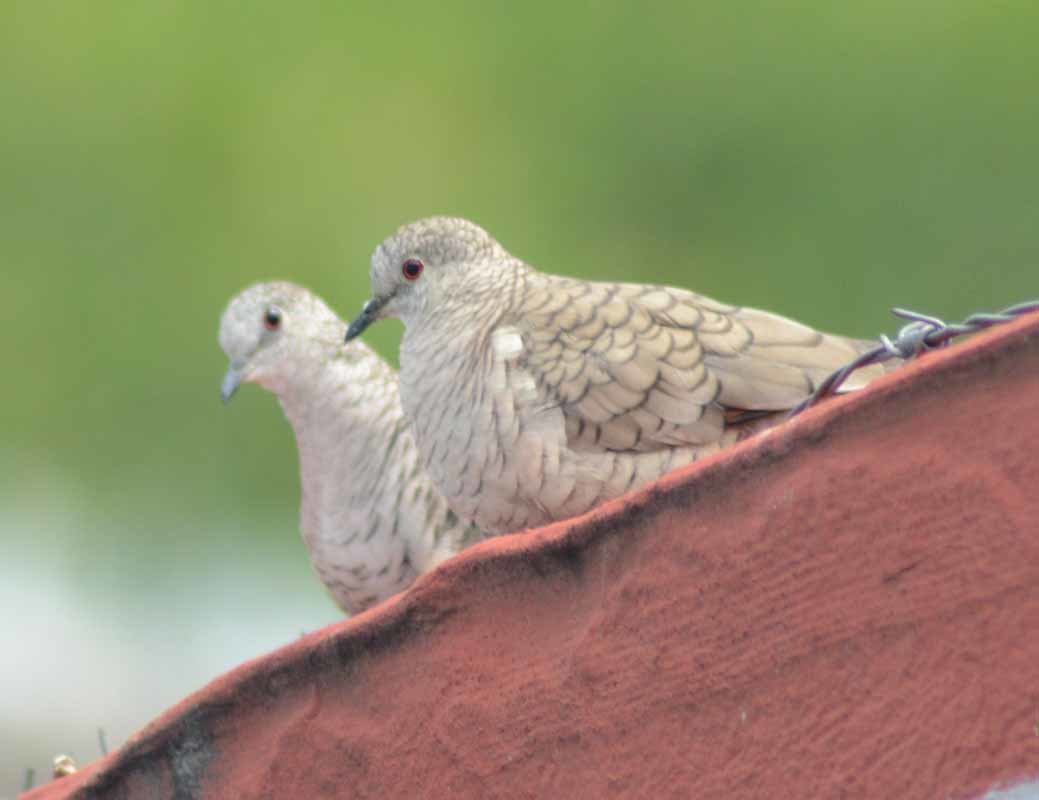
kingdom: Animalia
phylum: Chordata
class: Aves
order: Columbiformes
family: Columbidae
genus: Columbina
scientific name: Columbina inca
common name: Inca dove
